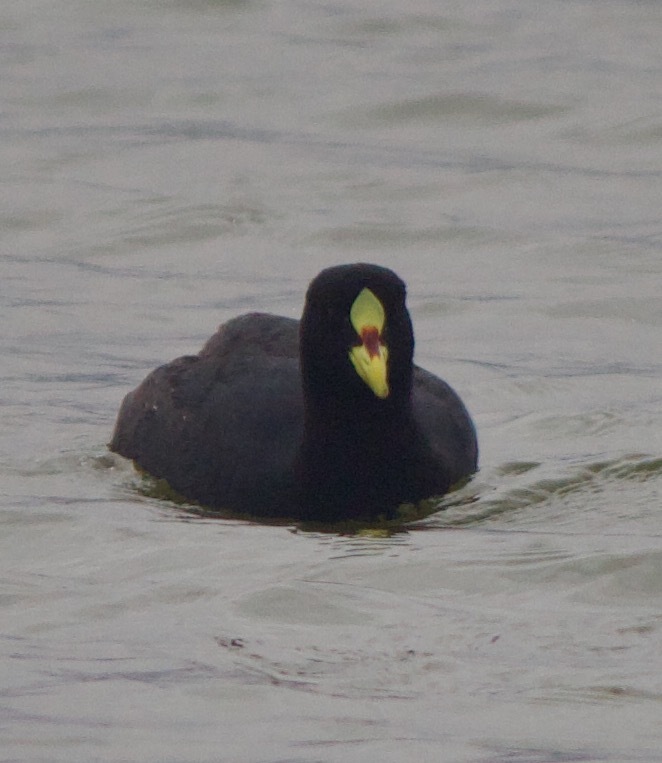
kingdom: Animalia
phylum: Chordata
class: Aves
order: Gruiformes
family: Rallidae
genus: Fulica
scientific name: Fulica armillata
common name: Red-gartered coot
